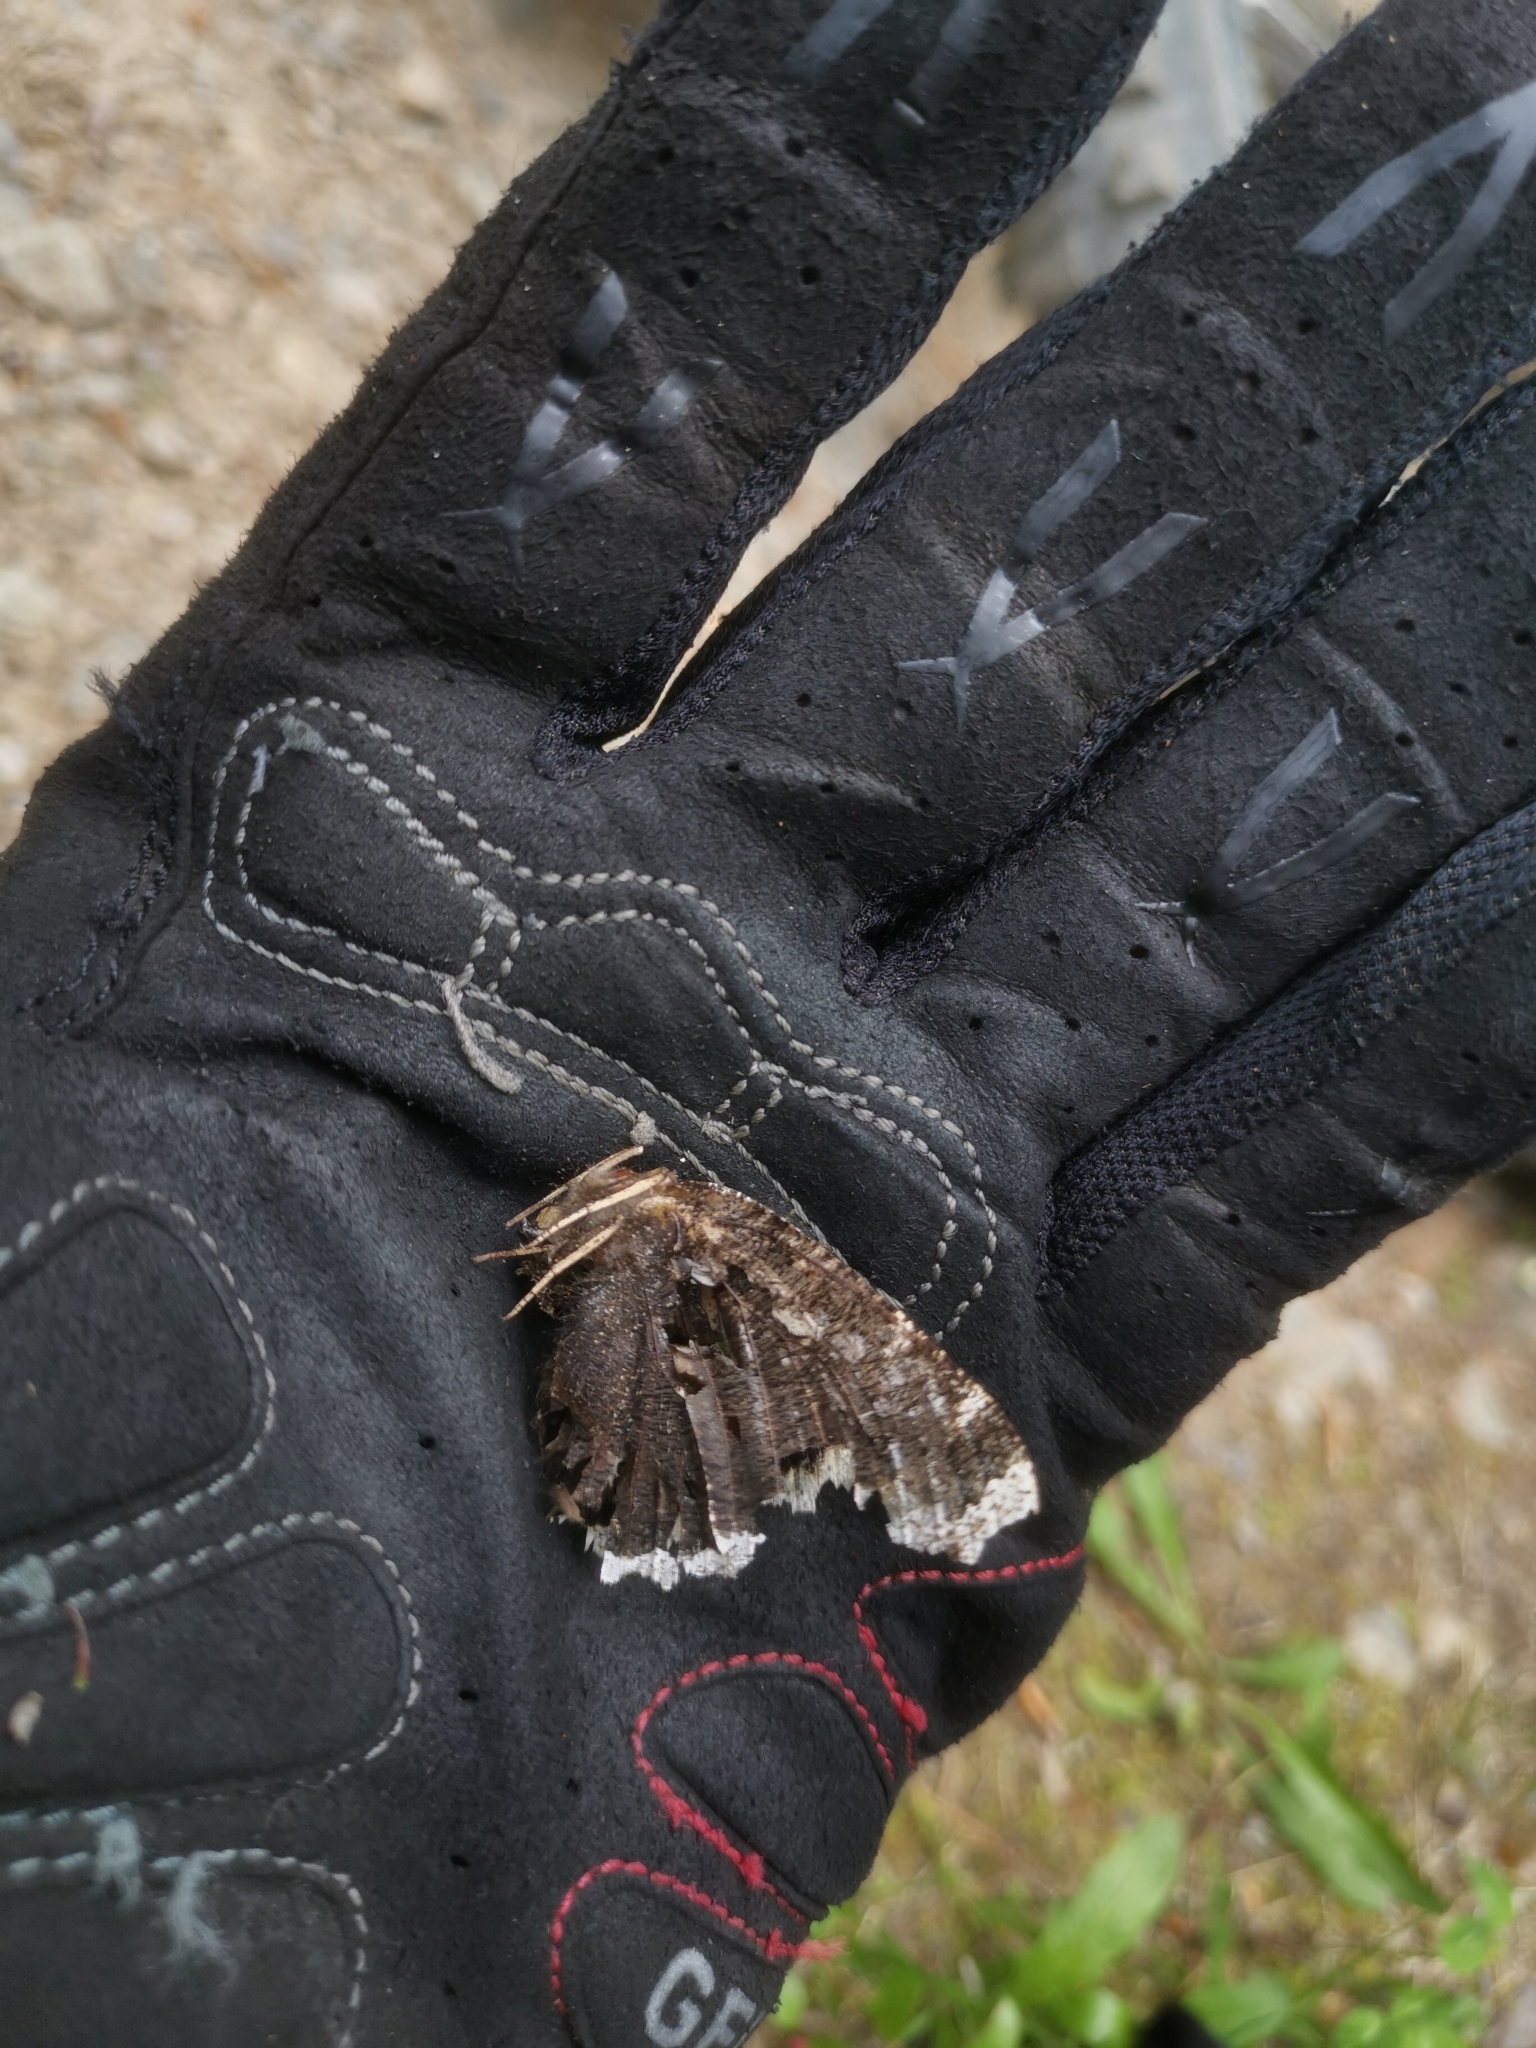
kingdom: Animalia
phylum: Arthropoda
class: Insecta
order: Lepidoptera
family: Nymphalidae
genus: Nymphalis
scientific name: Nymphalis antiopa
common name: Camberwell beauty
